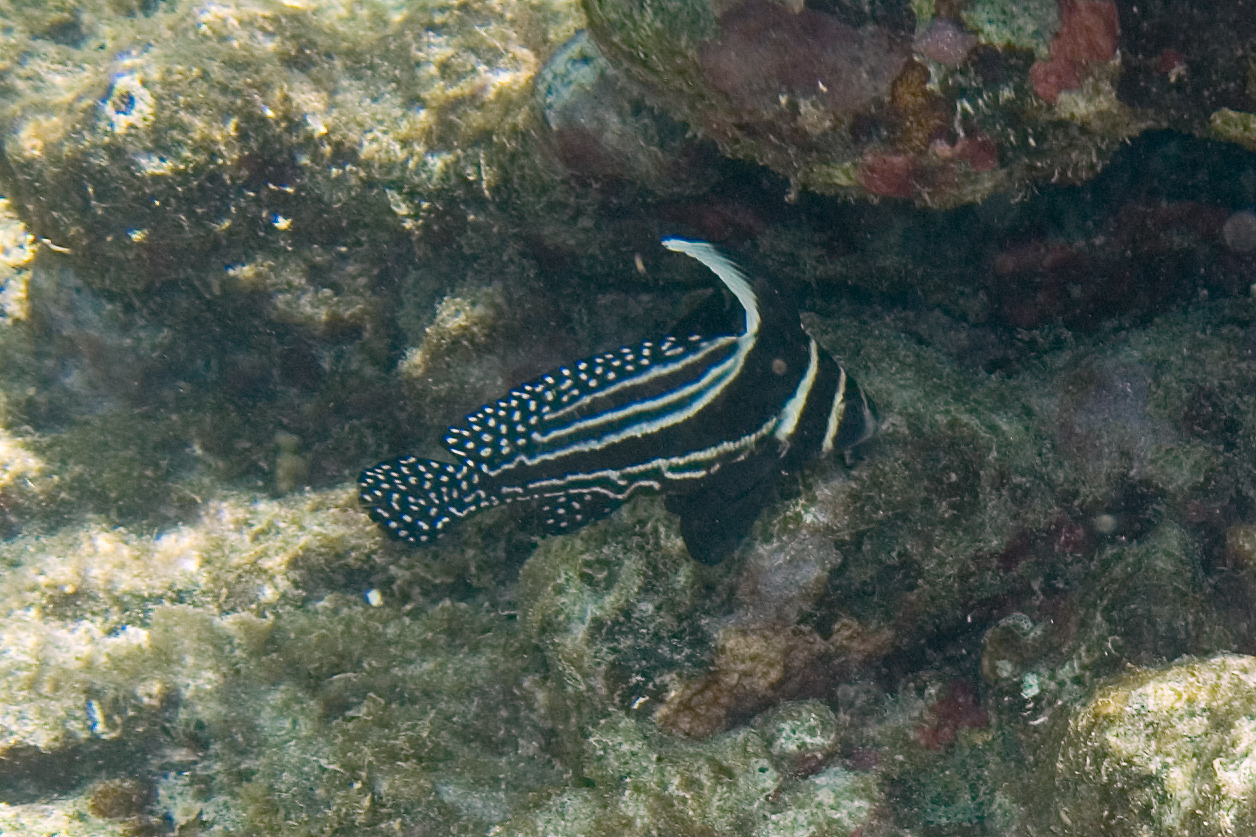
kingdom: Animalia
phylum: Chordata
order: Perciformes
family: Sciaenidae
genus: Equetus
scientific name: Equetus punctatus
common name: Spotted drum
